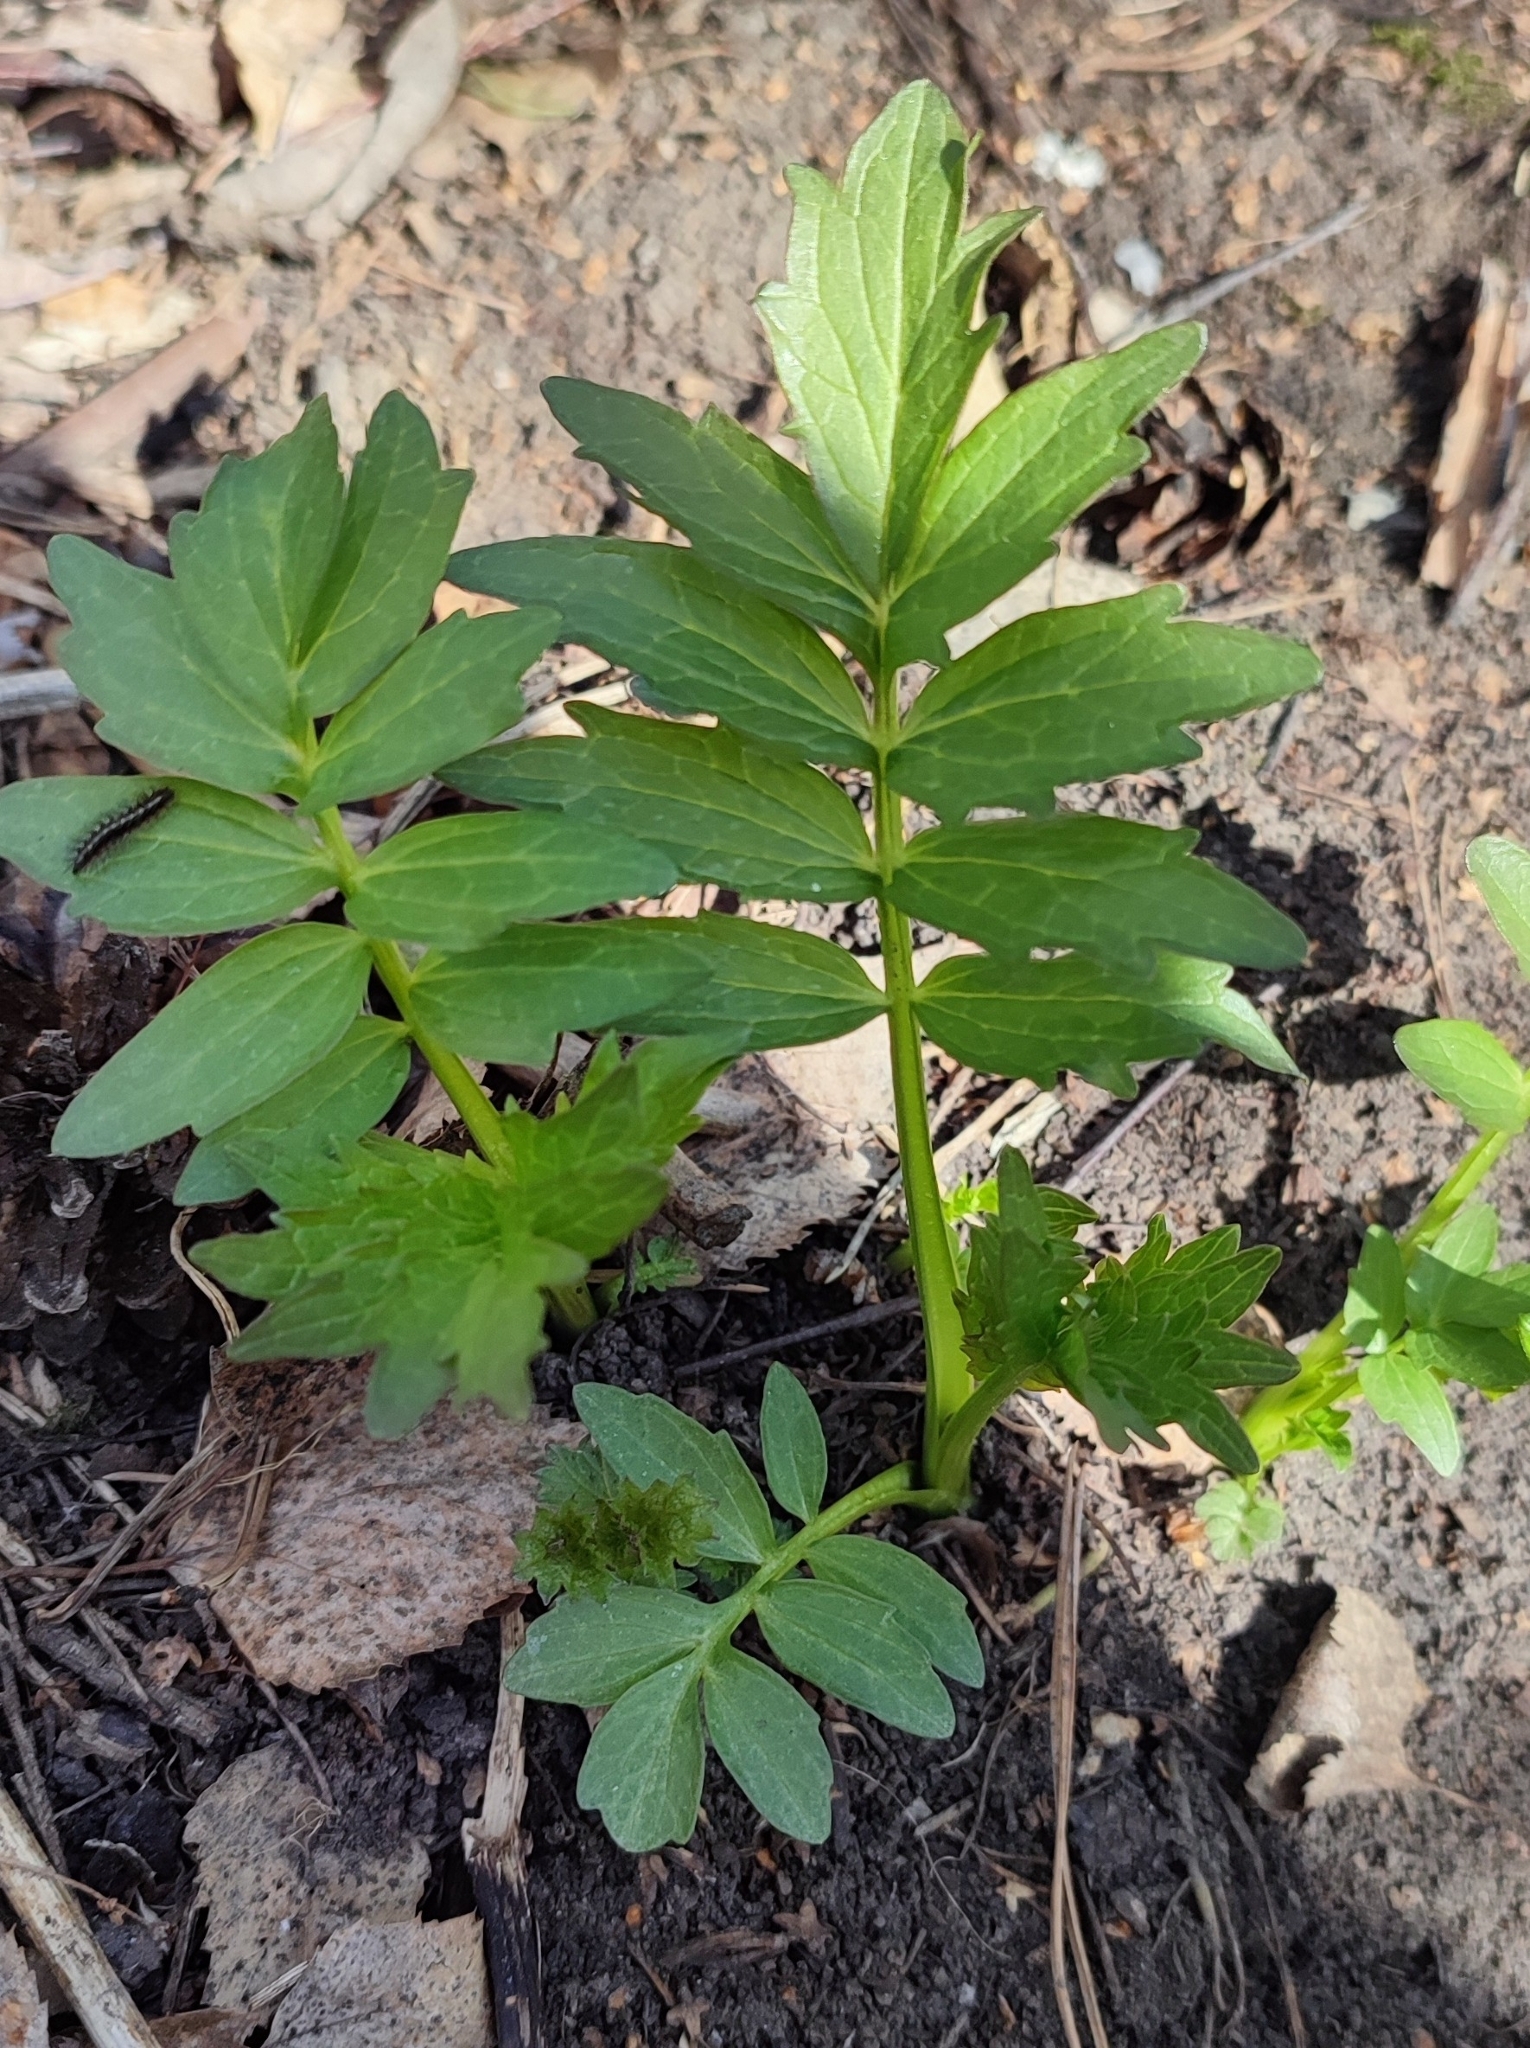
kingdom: Plantae
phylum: Tracheophyta
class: Magnoliopsida
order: Dipsacales
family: Caprifoliaceae
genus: Valeriana
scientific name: Valeriana wolgensis
